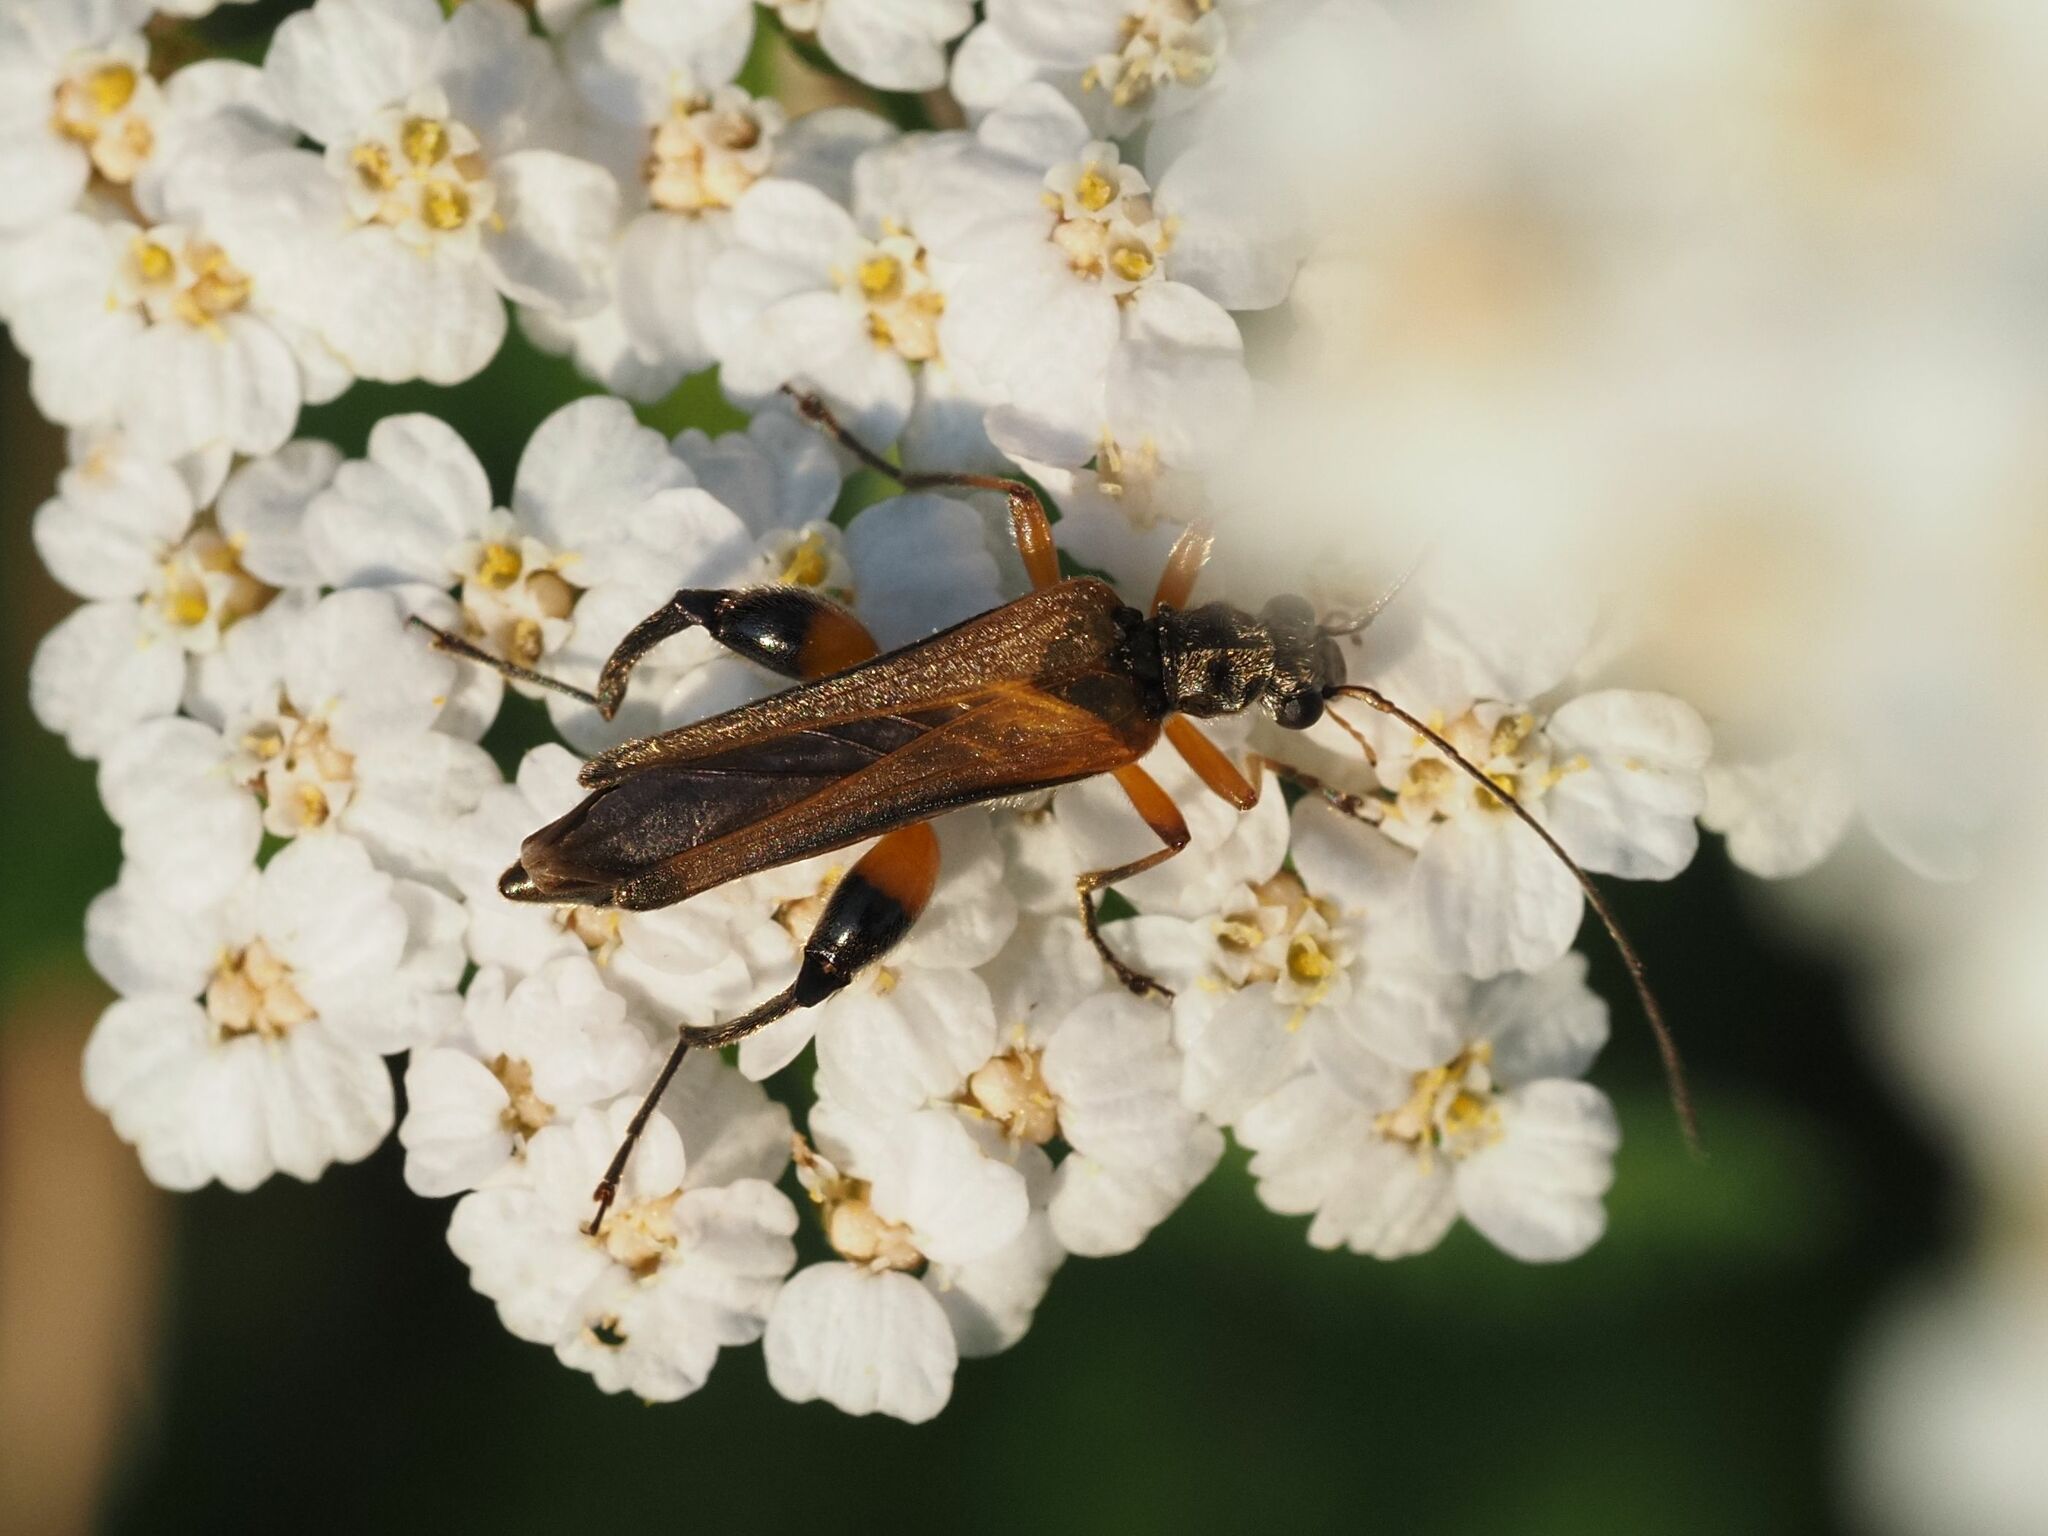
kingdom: Animalia
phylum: Arthropoda
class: Insecta
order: Coleoptera
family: Oedemeridae
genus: Oedemera
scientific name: Oedemera podagrariae
